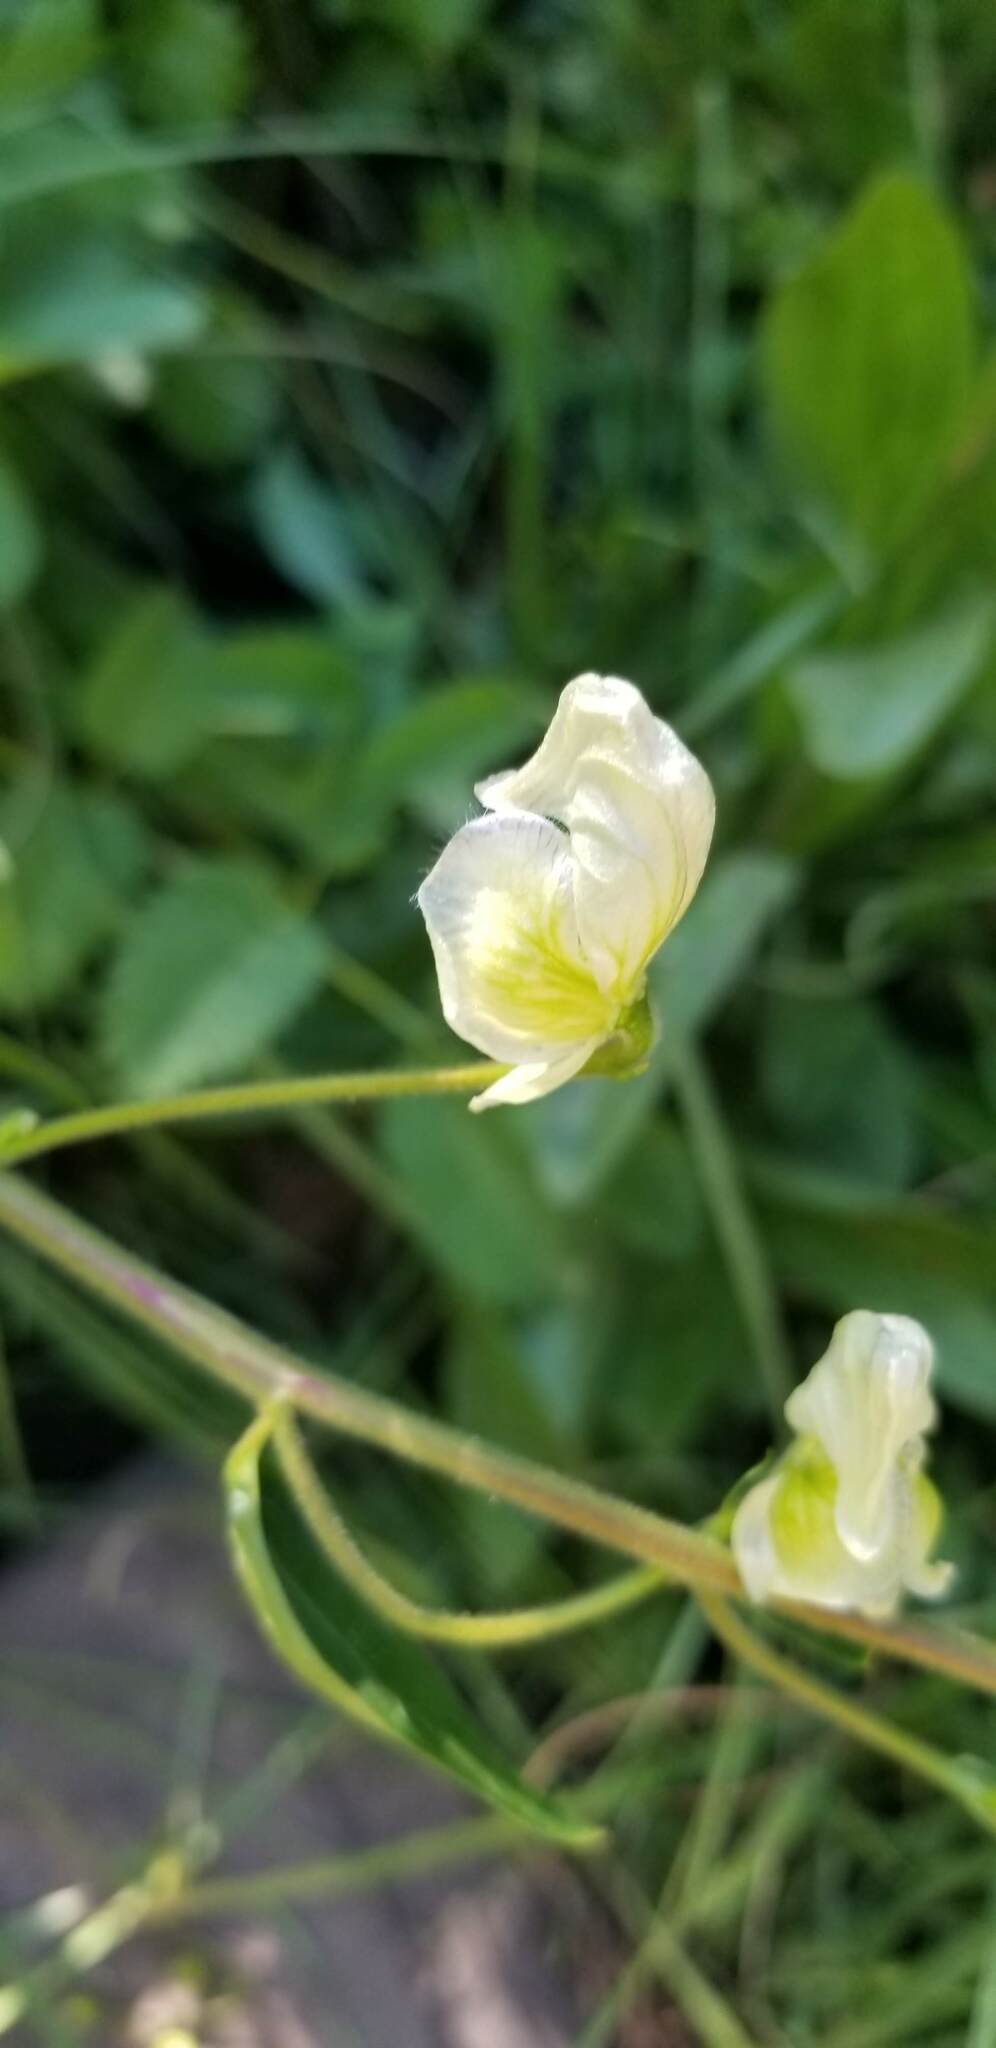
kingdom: Plantae
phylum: Tracheophyta
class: Magnoliopsida
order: Ranunculales
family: Ranunculaceae
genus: Aconitum
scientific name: Aconitum columbianum
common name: Columbia aconite
